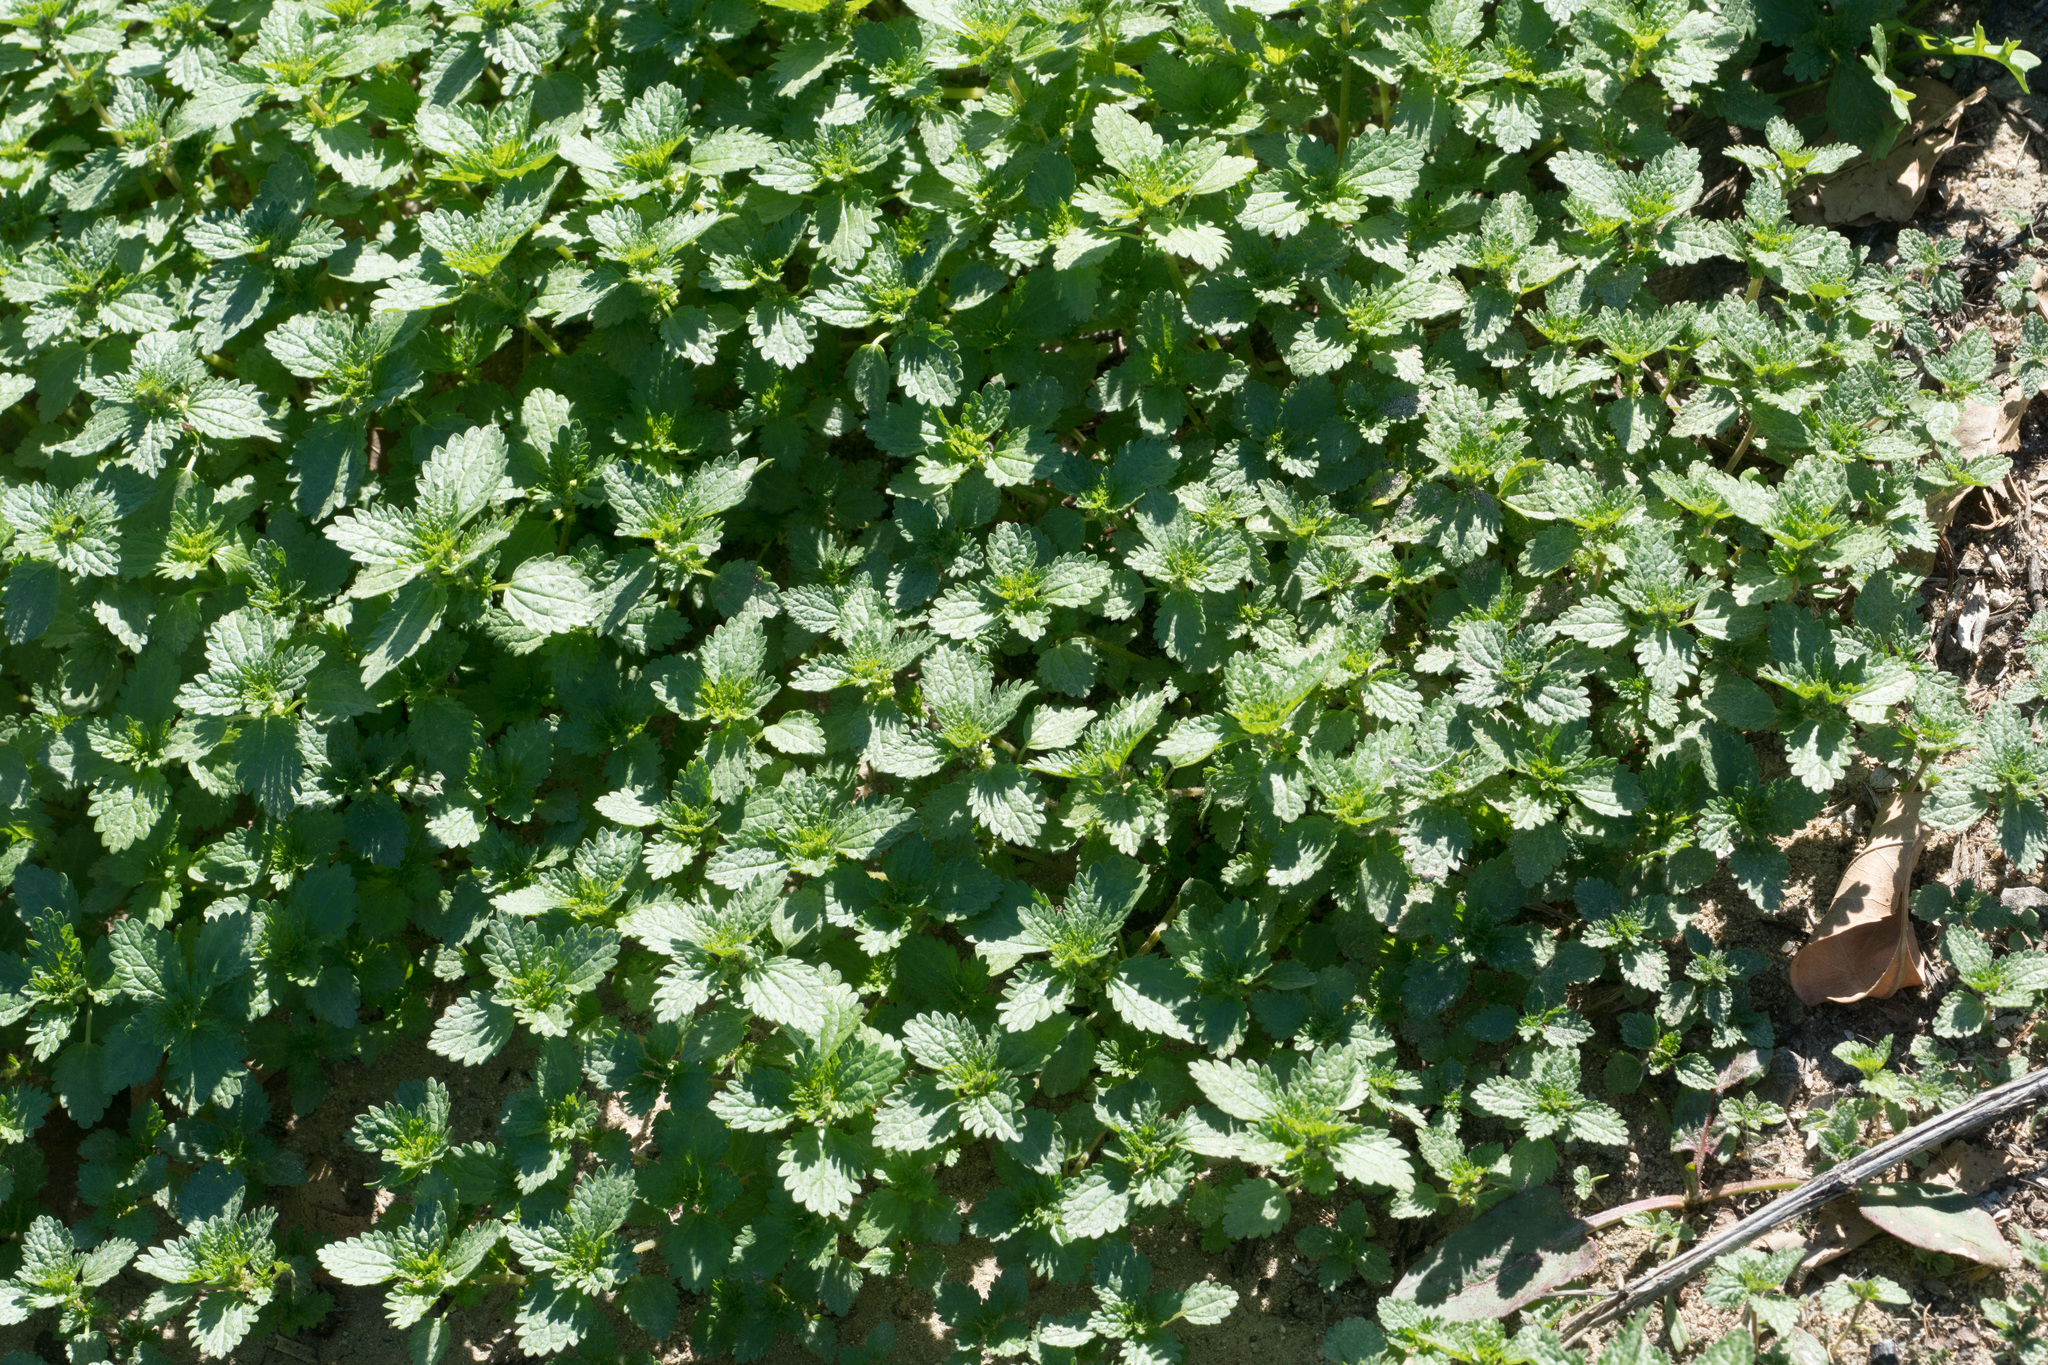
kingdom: Plantae
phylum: Tracheophyta
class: Magnoliopsida
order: Rosales
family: Urticaceae
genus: Urtica
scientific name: Urtica urens
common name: Dwarf nettle
